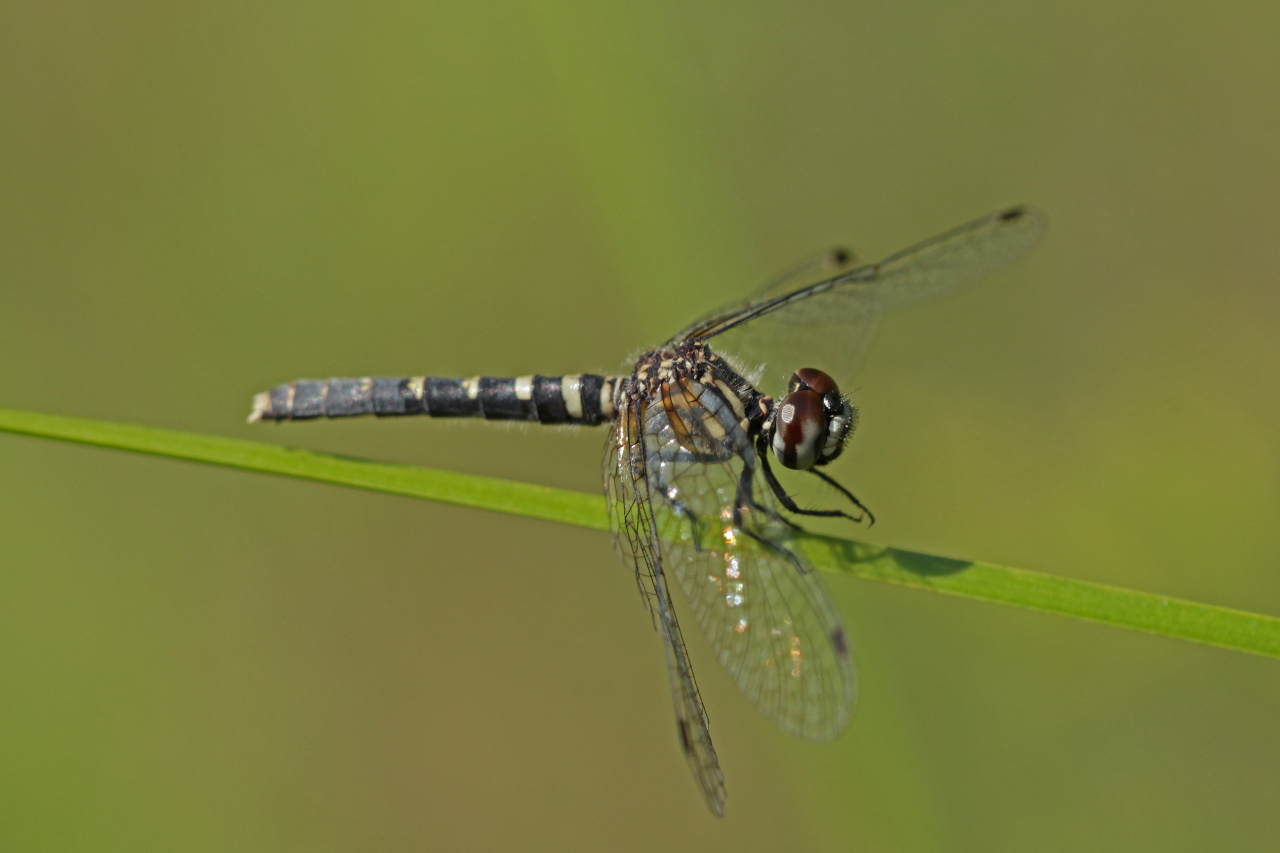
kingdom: Animalia
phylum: Arthropoda
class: Insecta
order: Odonata
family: Libellulidae
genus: Nannothemis
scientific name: Nannothemis bella
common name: Elfin skimmer
